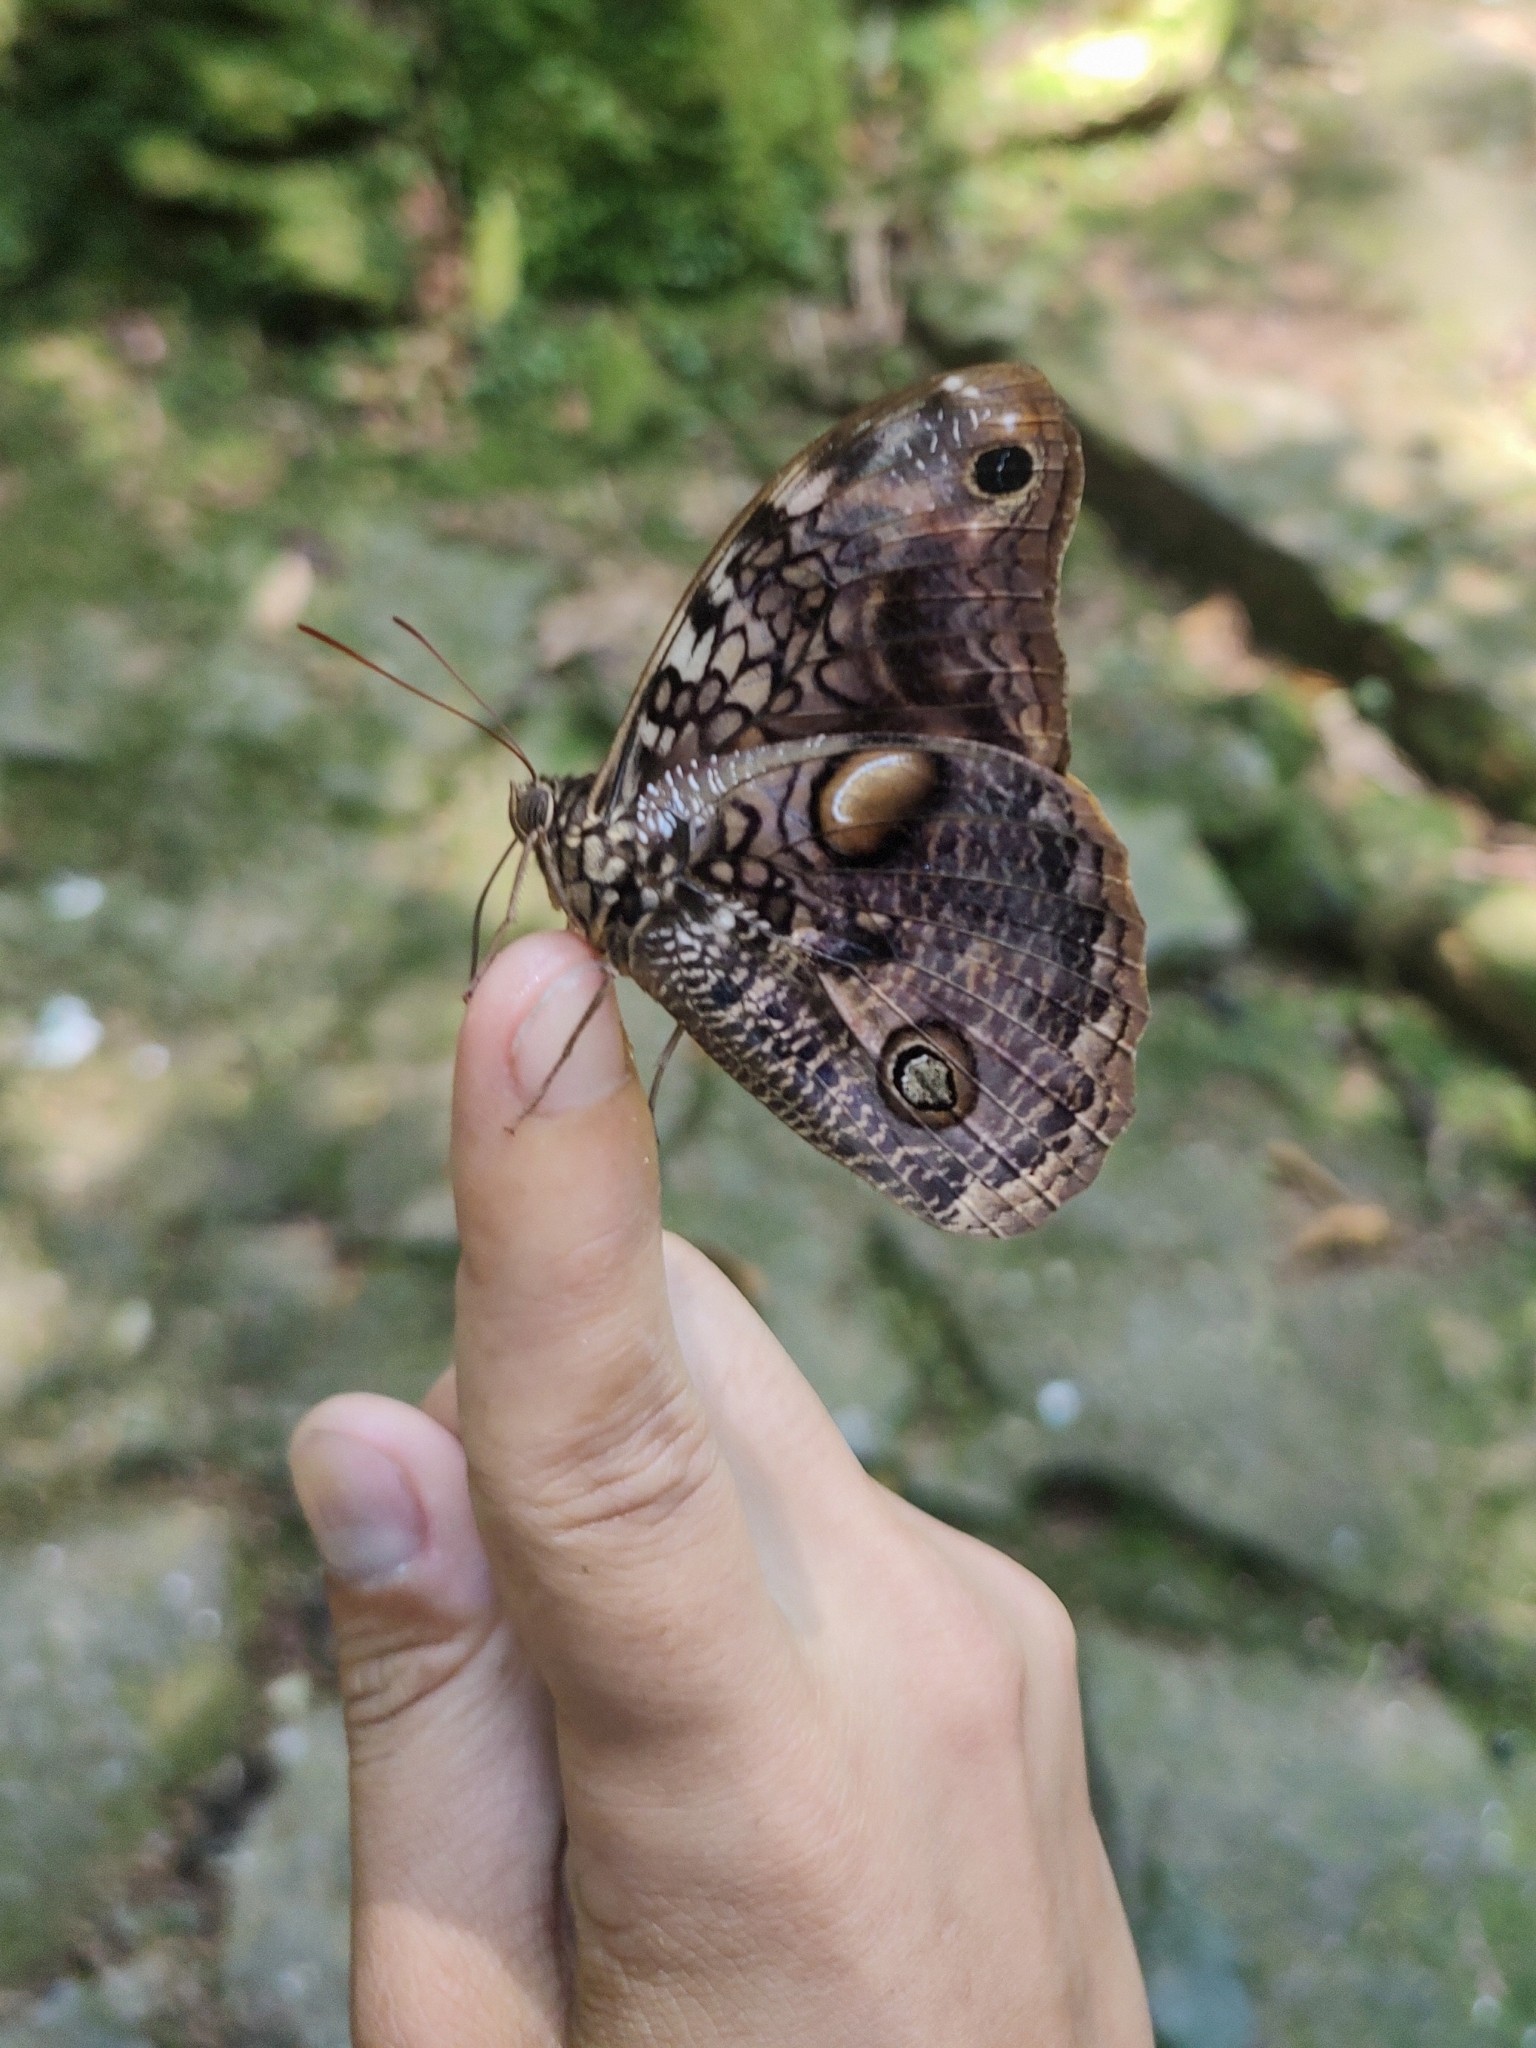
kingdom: Animalia
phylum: Arthropoda
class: Insecta
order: Lepidoptera
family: Nymphalidae
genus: Catoblepia
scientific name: Catoblepia amphirhoe
